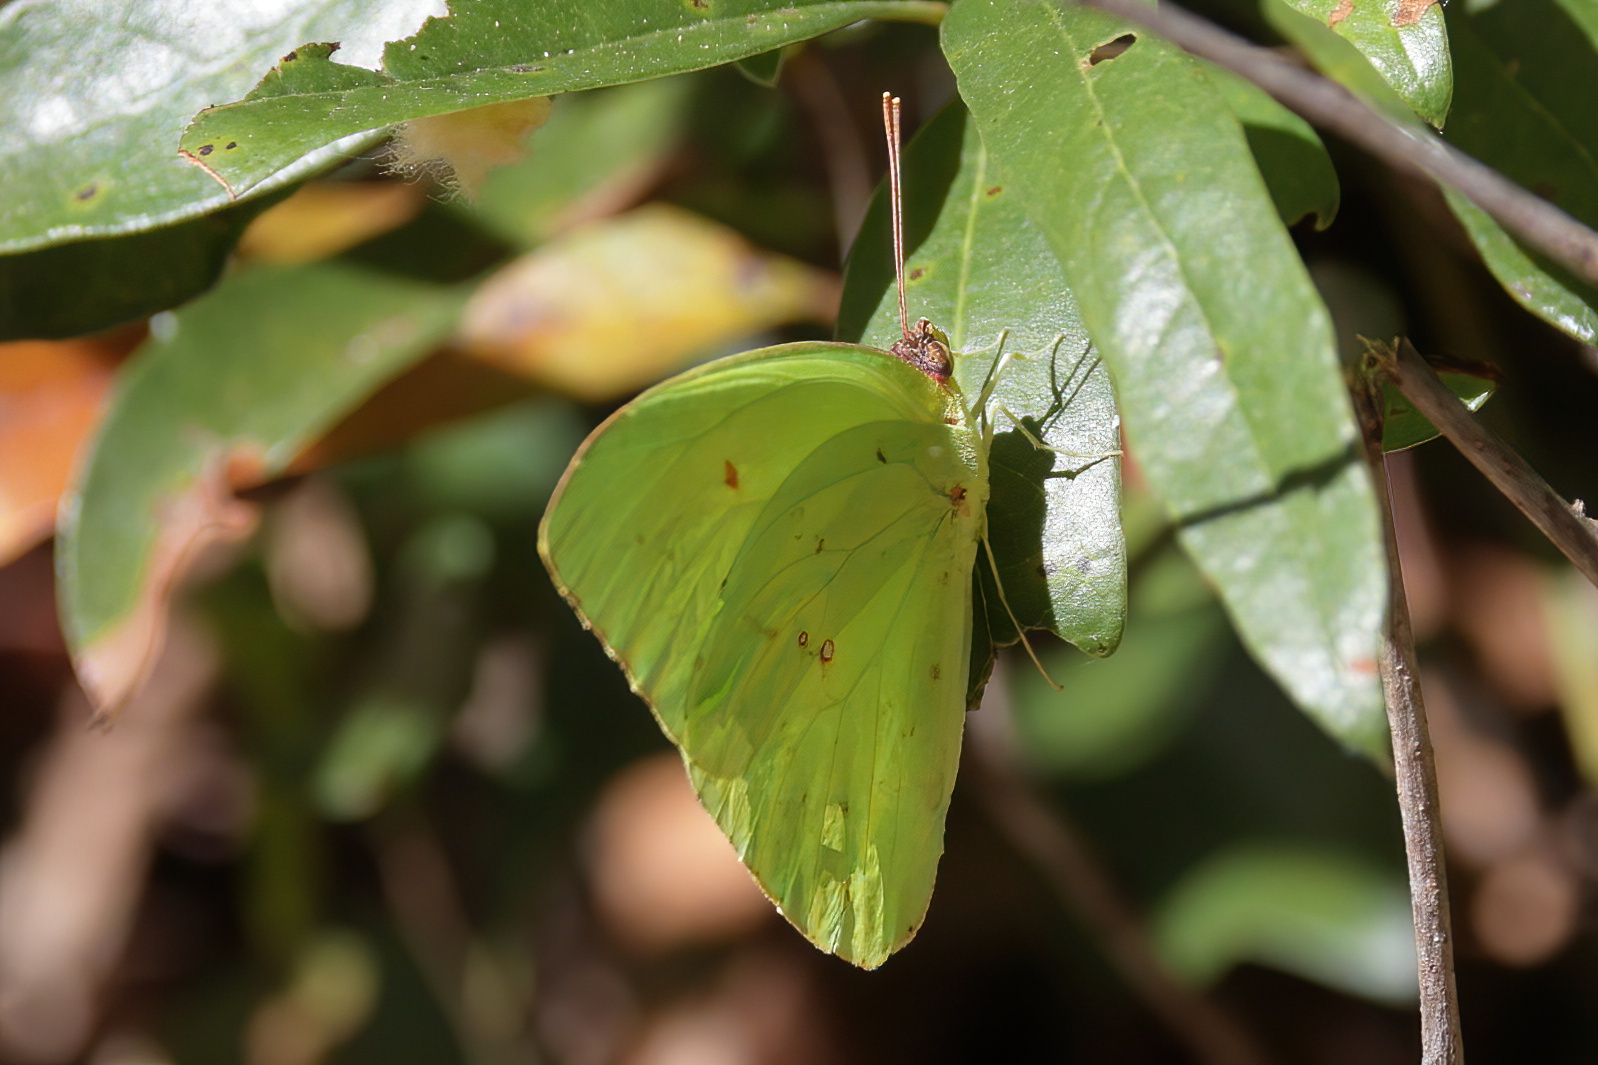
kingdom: Animalia
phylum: Arthropoda
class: Insecta
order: Lepidoptera
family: Pieridae
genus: Phoebis
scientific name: Phoebis sennae
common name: Cloudless sulphur
